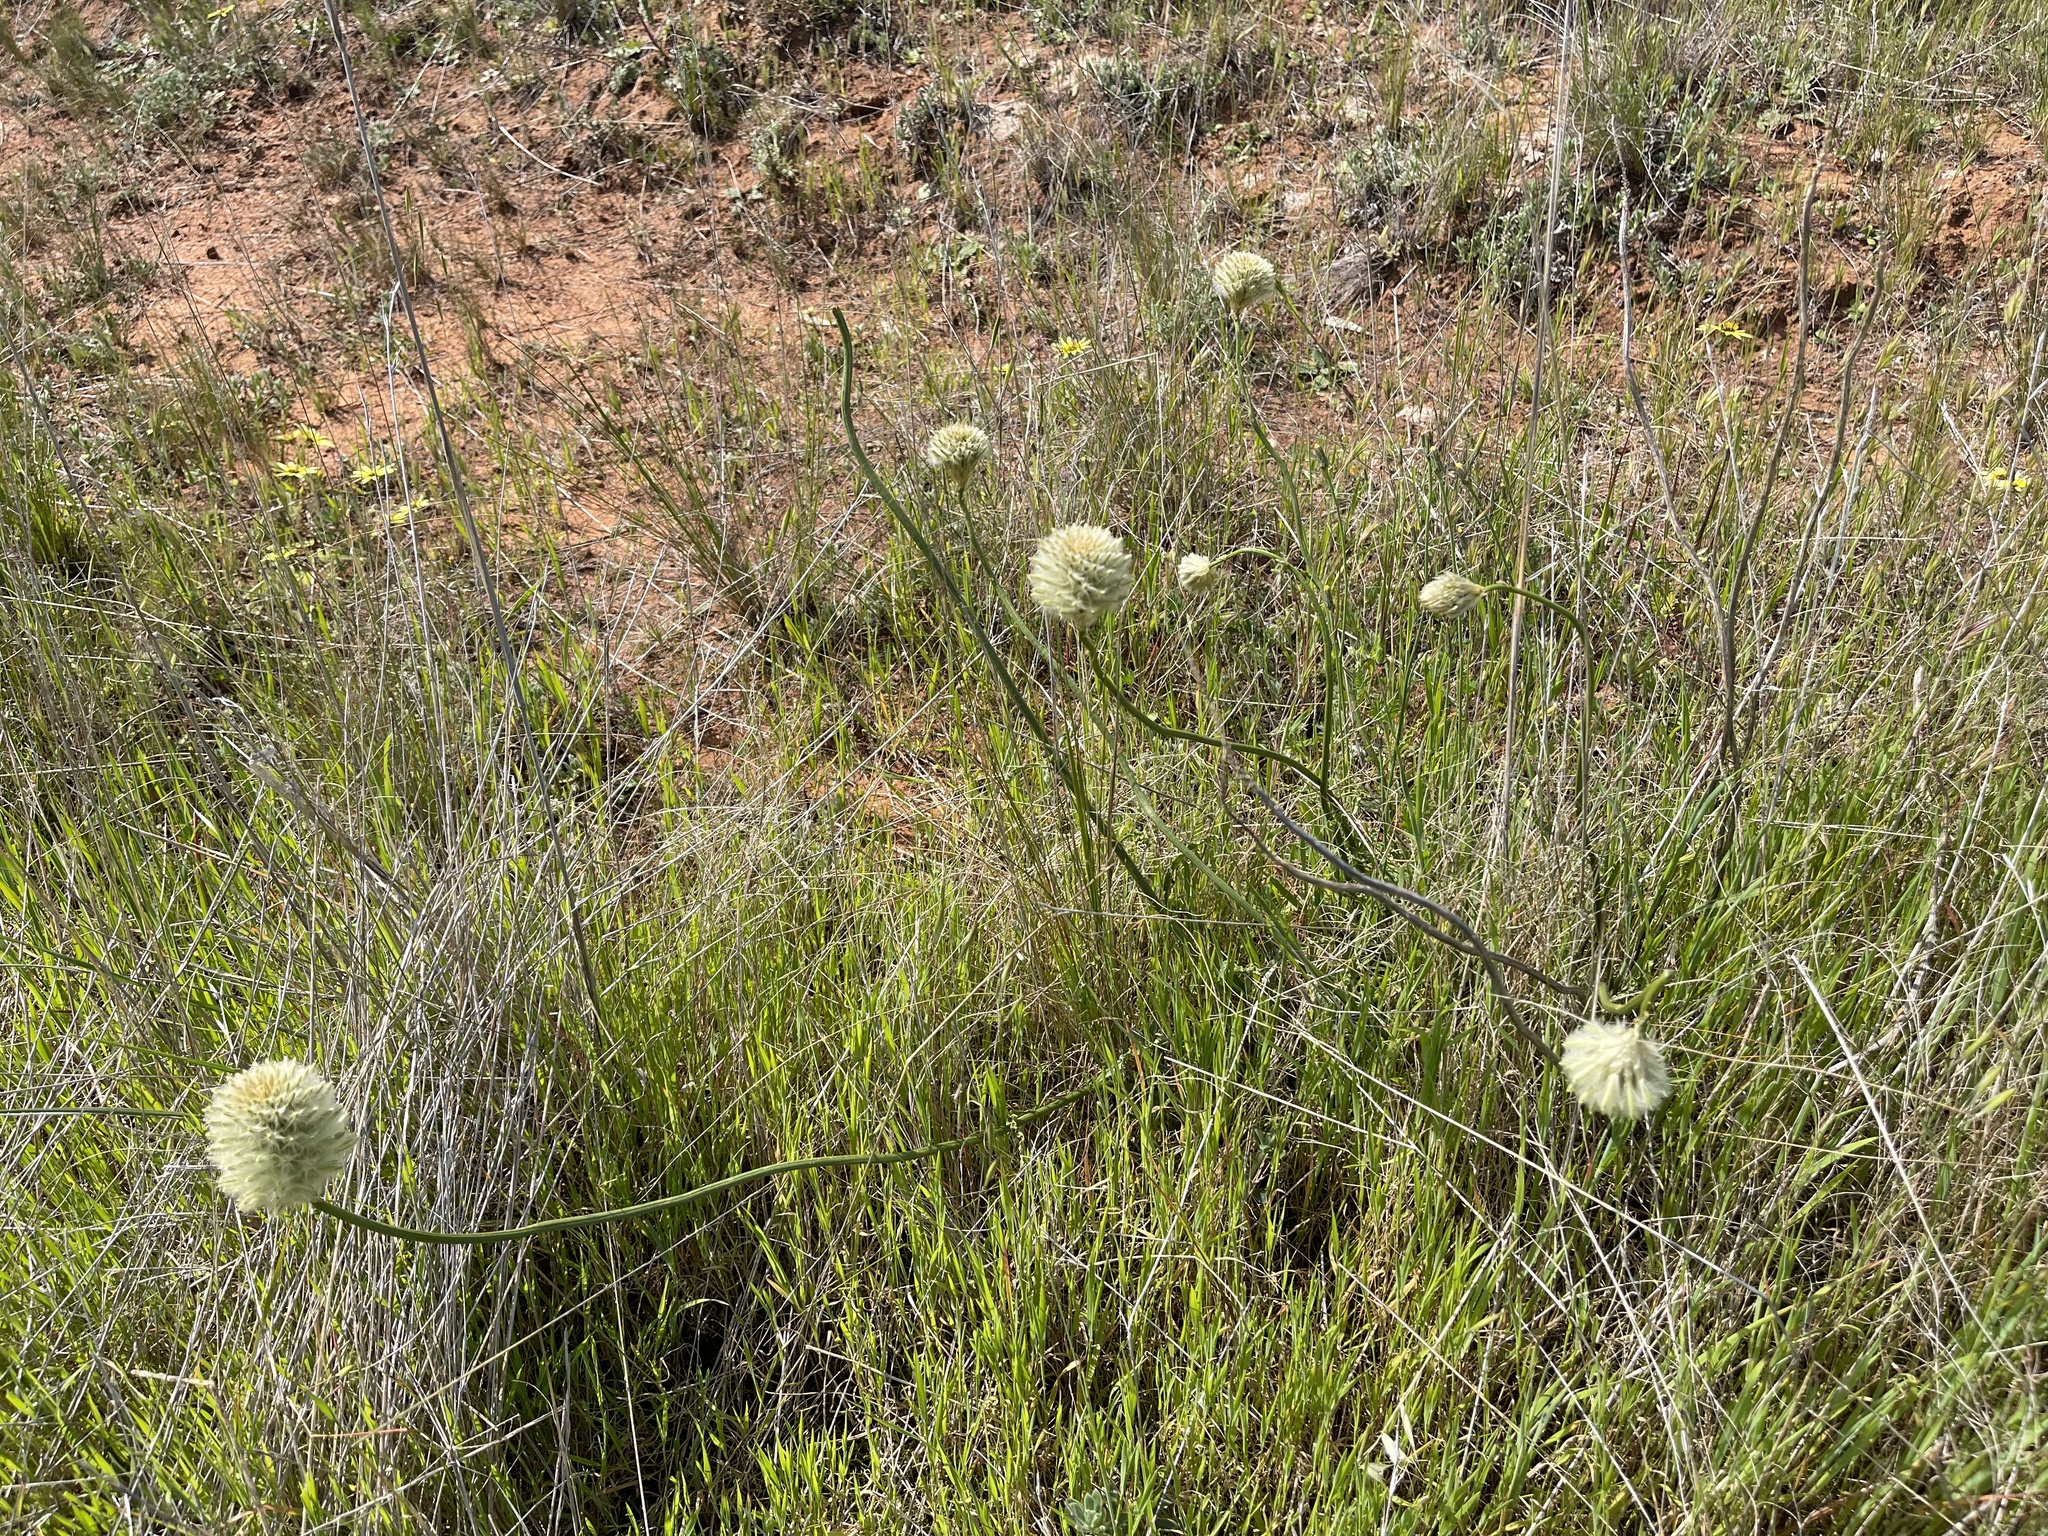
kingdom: Plantae
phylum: Tracheophyta
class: Magnoliopsida
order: Caryophyllales
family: Amaranthaceae
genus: Ptilotus
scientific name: Ptilotus macrocephalus
